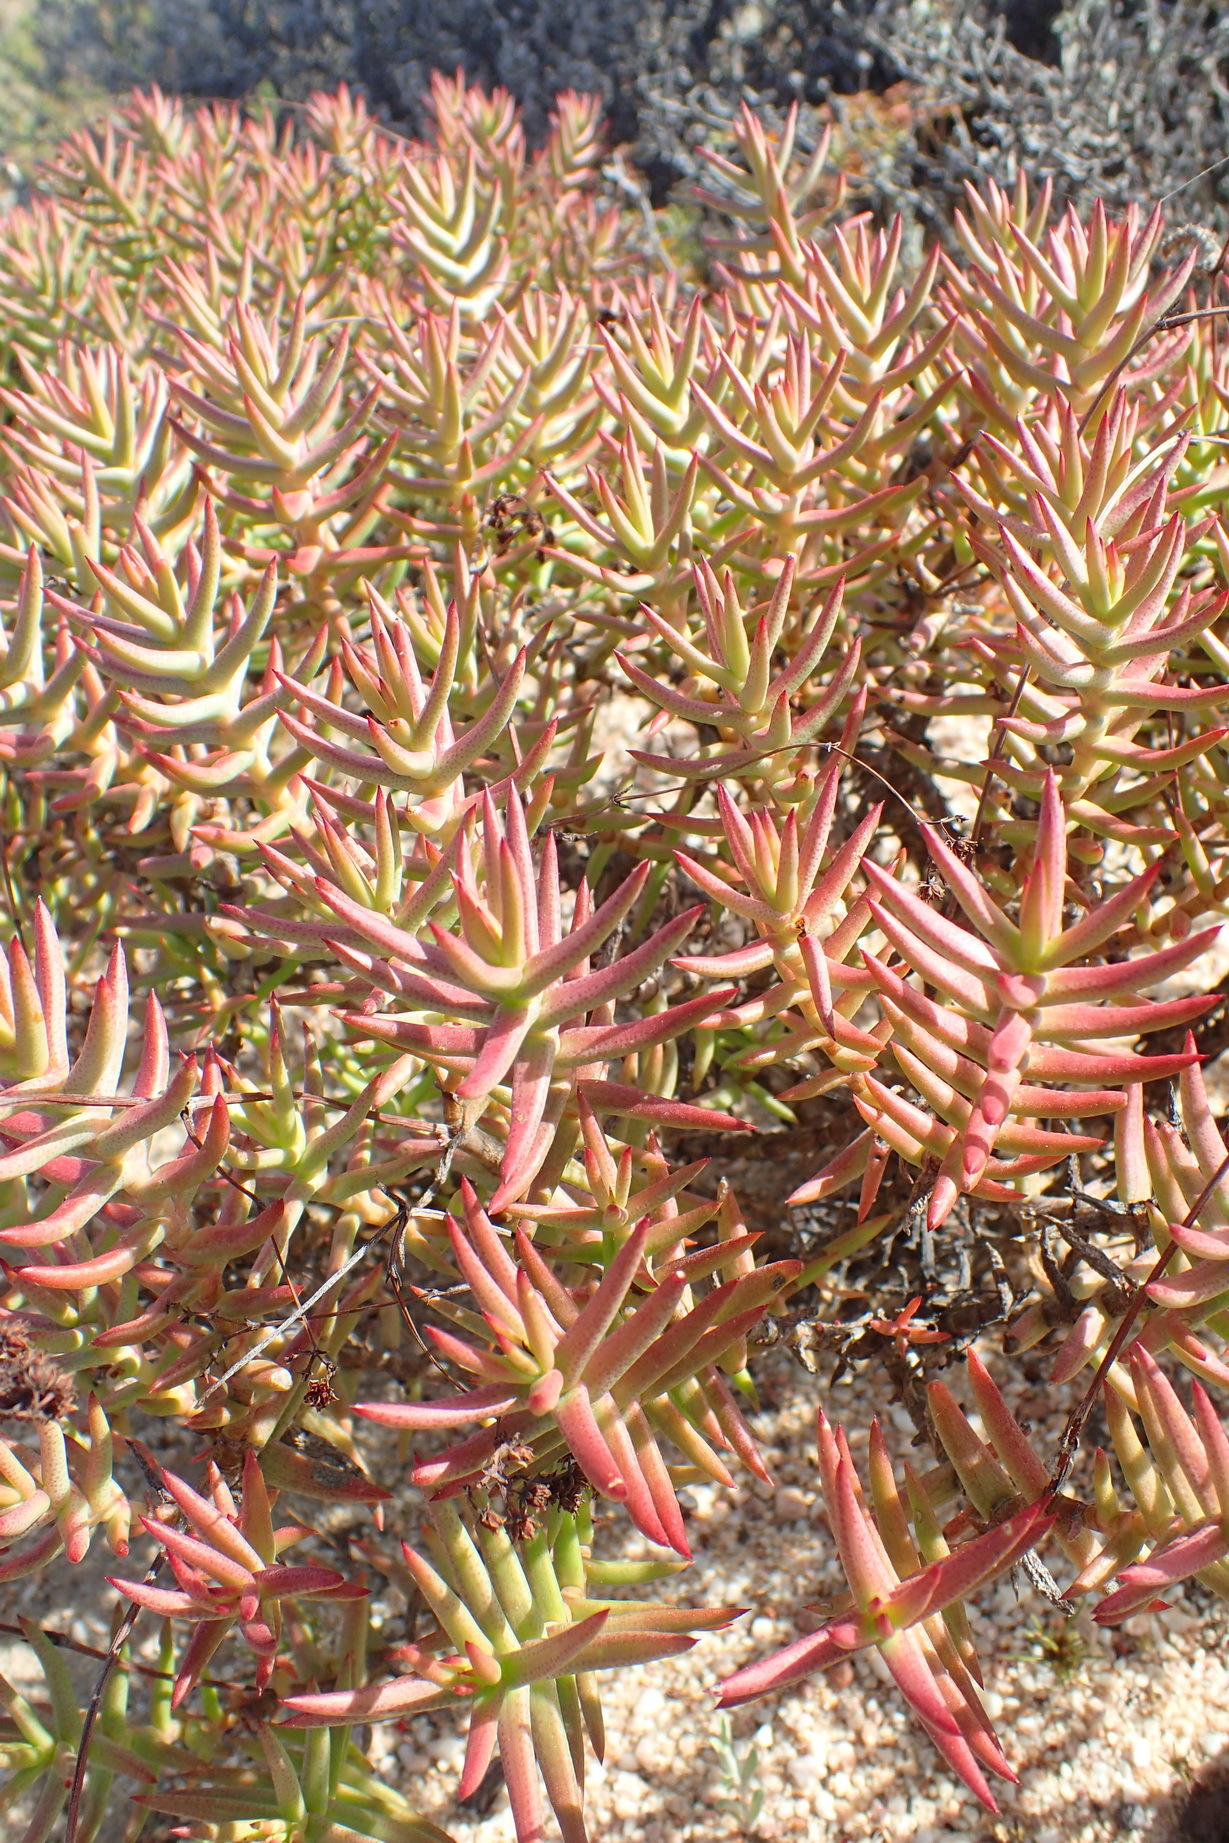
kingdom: Plantae
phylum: Tracheophyta
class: Magnoliopsida
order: Saxifragales
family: Crassulaceae
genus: Crassula
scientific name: Crassula tetragona
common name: Pygmyweed
